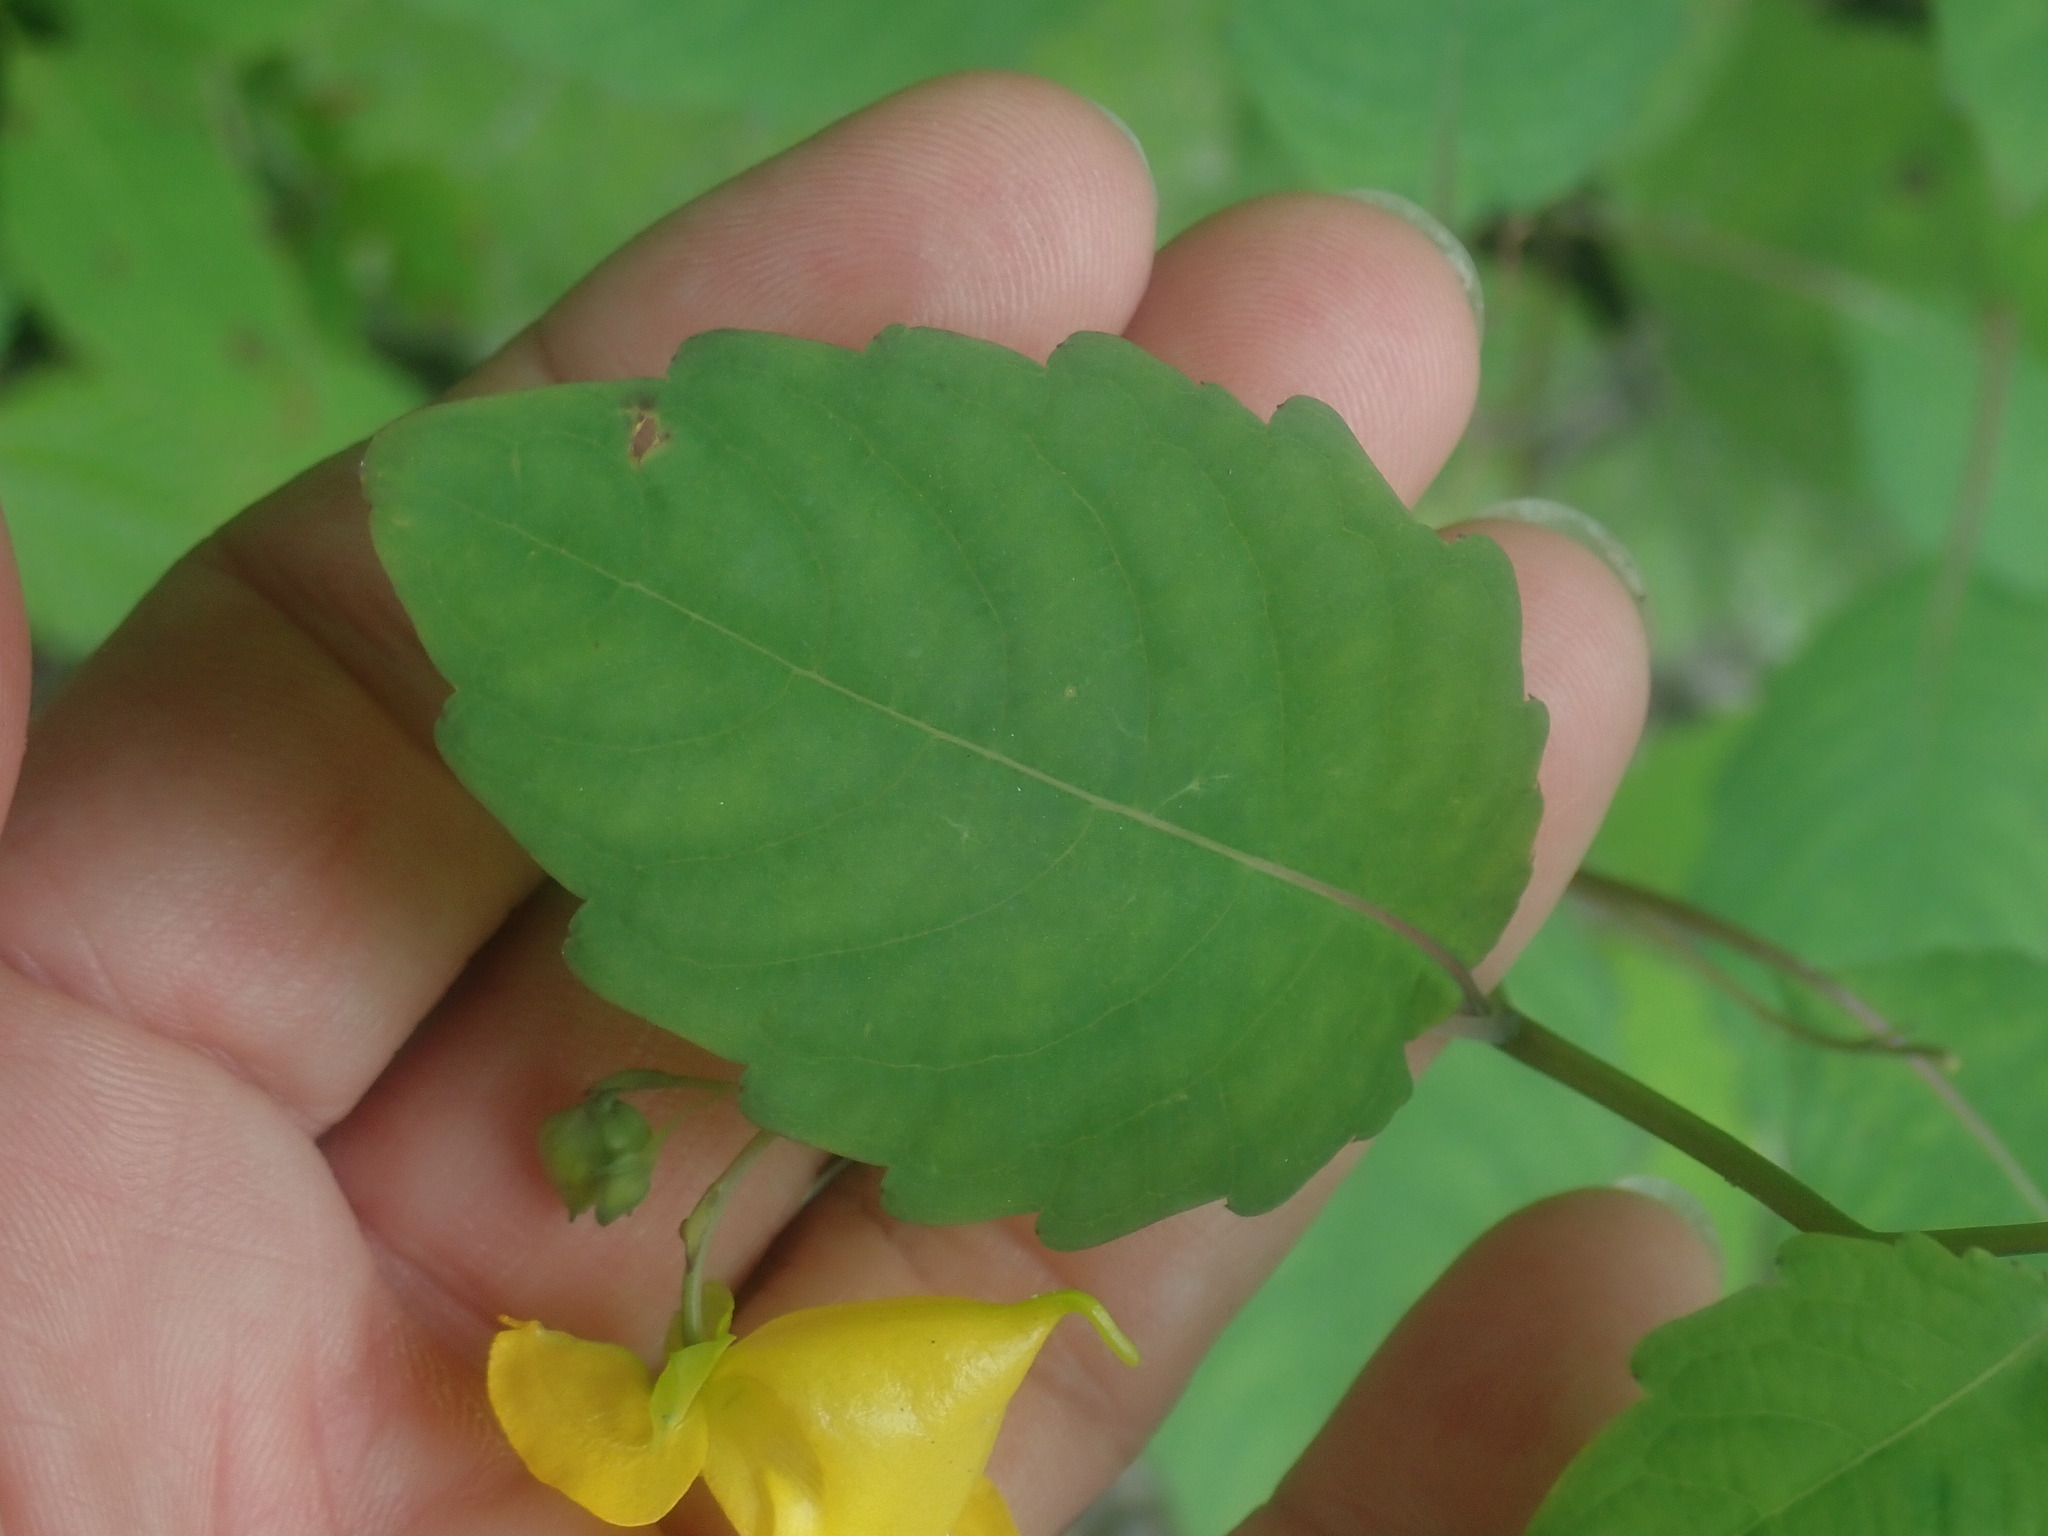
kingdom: Plantae
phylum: Tracheophyta
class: Magnoliopsida
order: Ericales
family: Balsaminaceae
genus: Impatiens
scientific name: Impatiens pallida
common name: Pale snapweed
